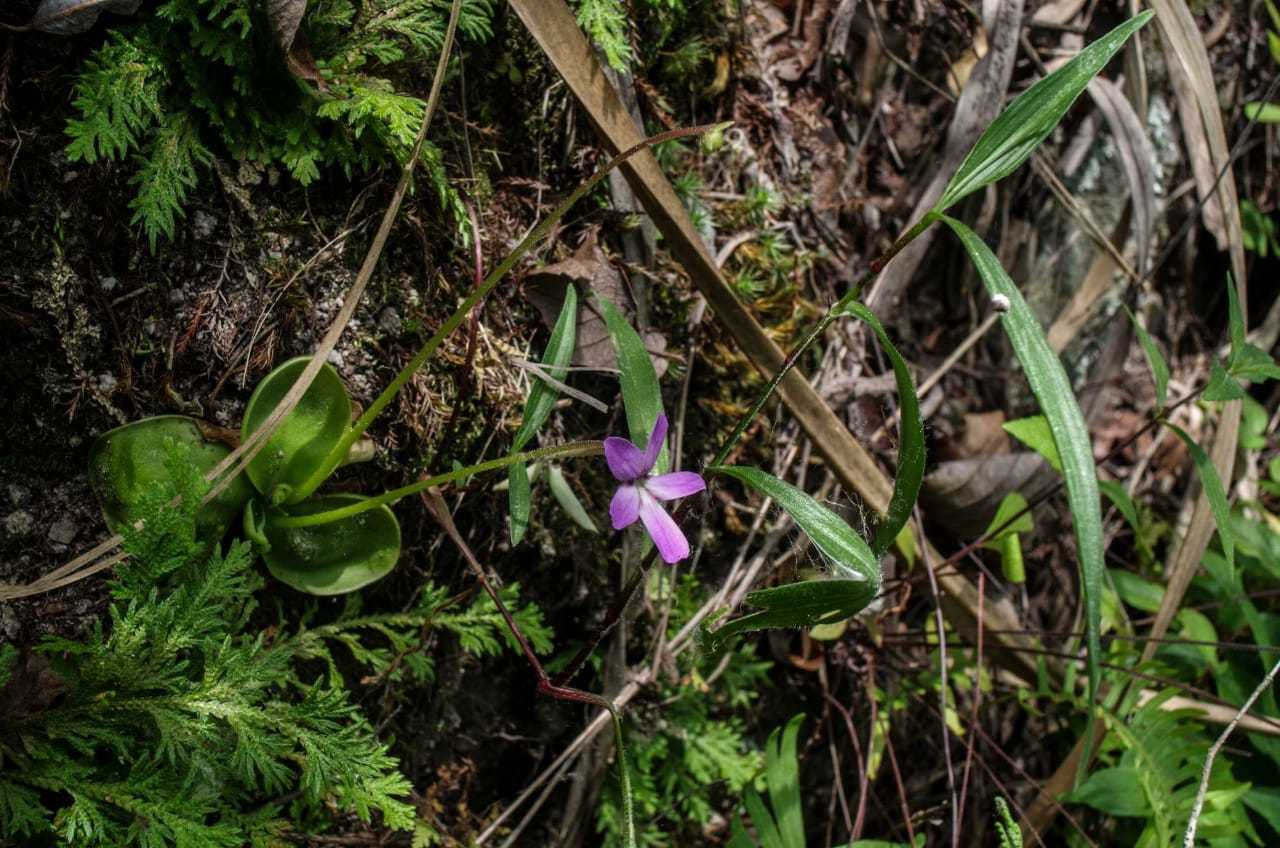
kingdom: Plantae
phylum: Tracheophyta
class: Magnoliopsida
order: Lamiales
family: Lentibulariaceae
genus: Pinguicula
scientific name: Pinguicula moranensis
